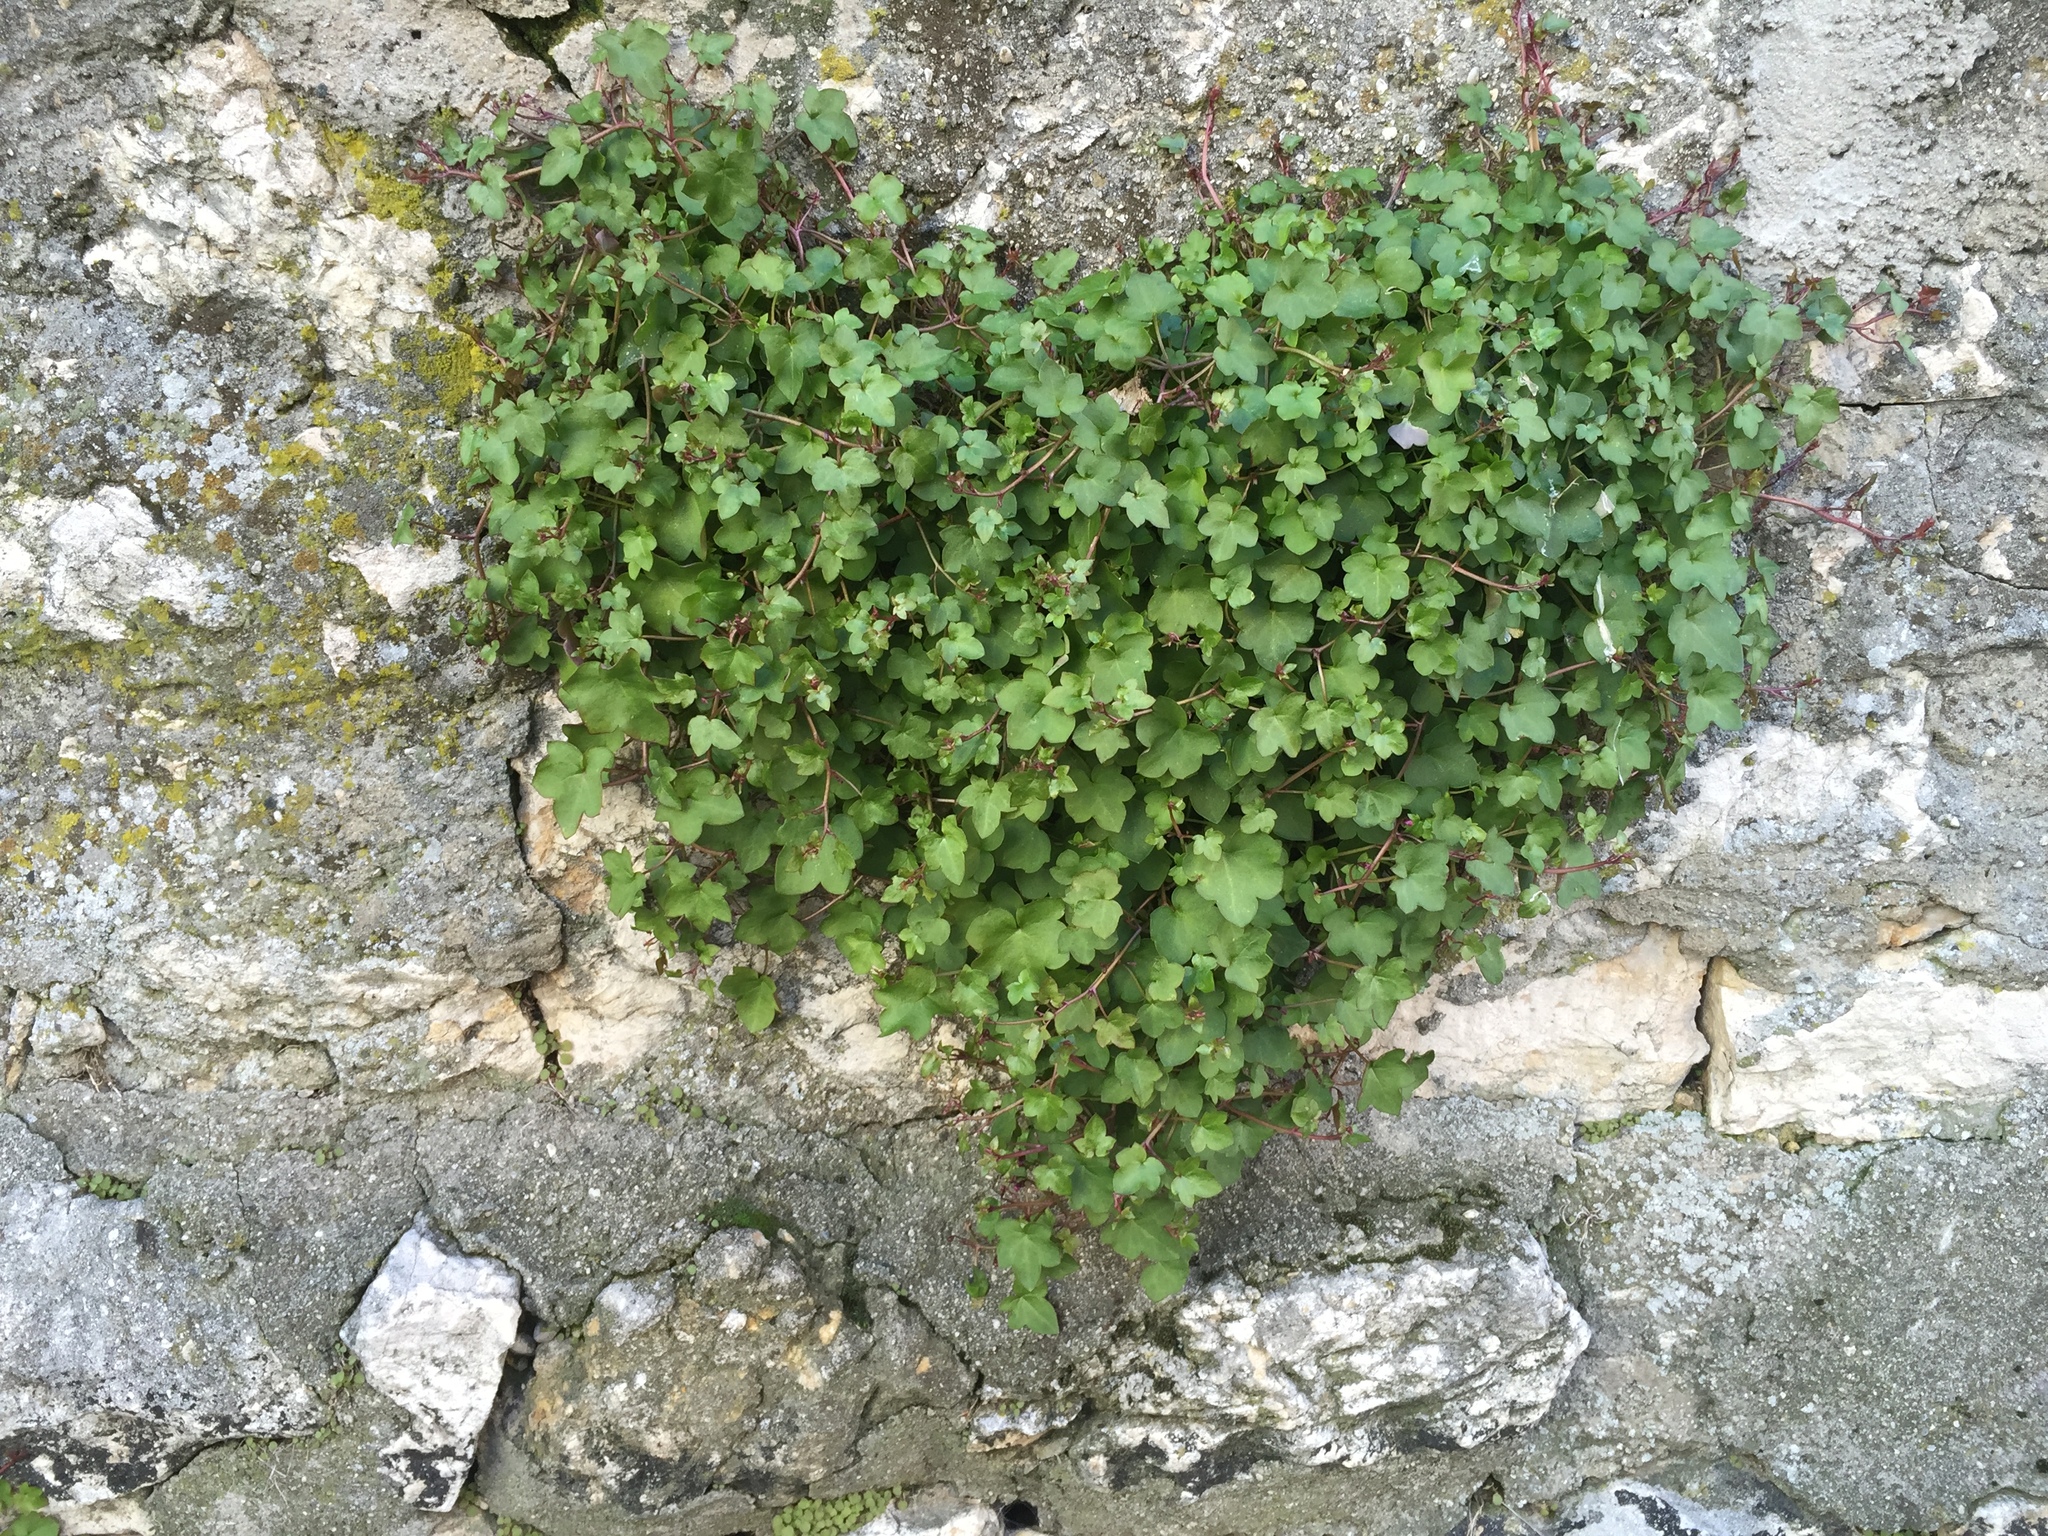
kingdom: Plantae
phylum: Tracheophyta
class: Magnoliopsida
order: Lamiales
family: Plantaginaceae
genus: Cymbalaria
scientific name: Cymbalaria muralis
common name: Ivy-leaved toadflax
